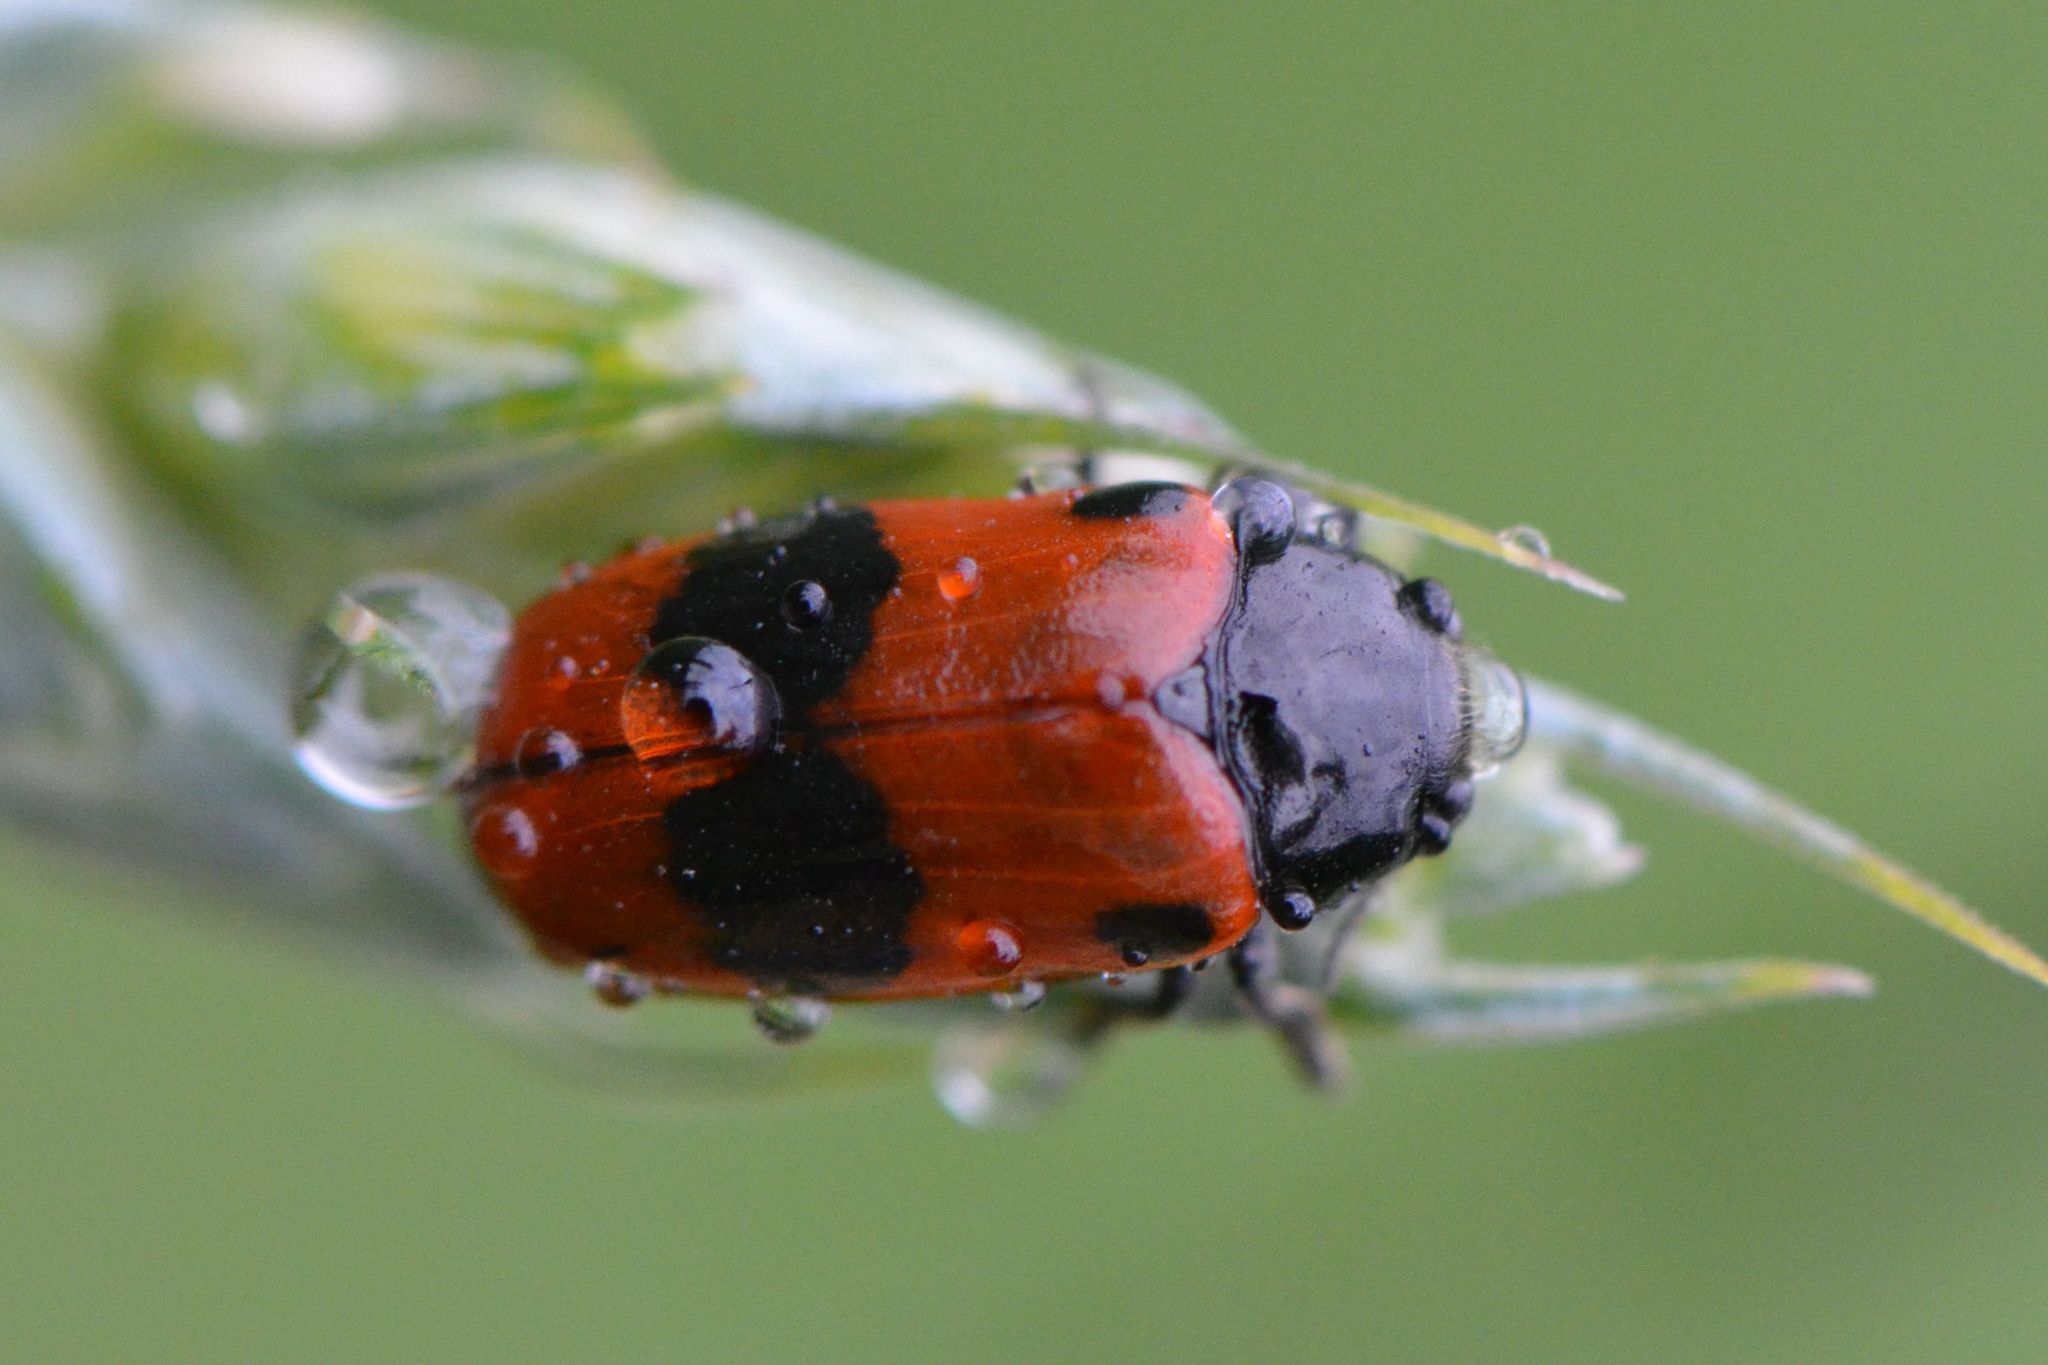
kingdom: Animalia
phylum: Arthropoda
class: Insecta
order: Coleoptera
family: Chrysomelidae
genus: Clytra
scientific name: Clytra laeviuscula
